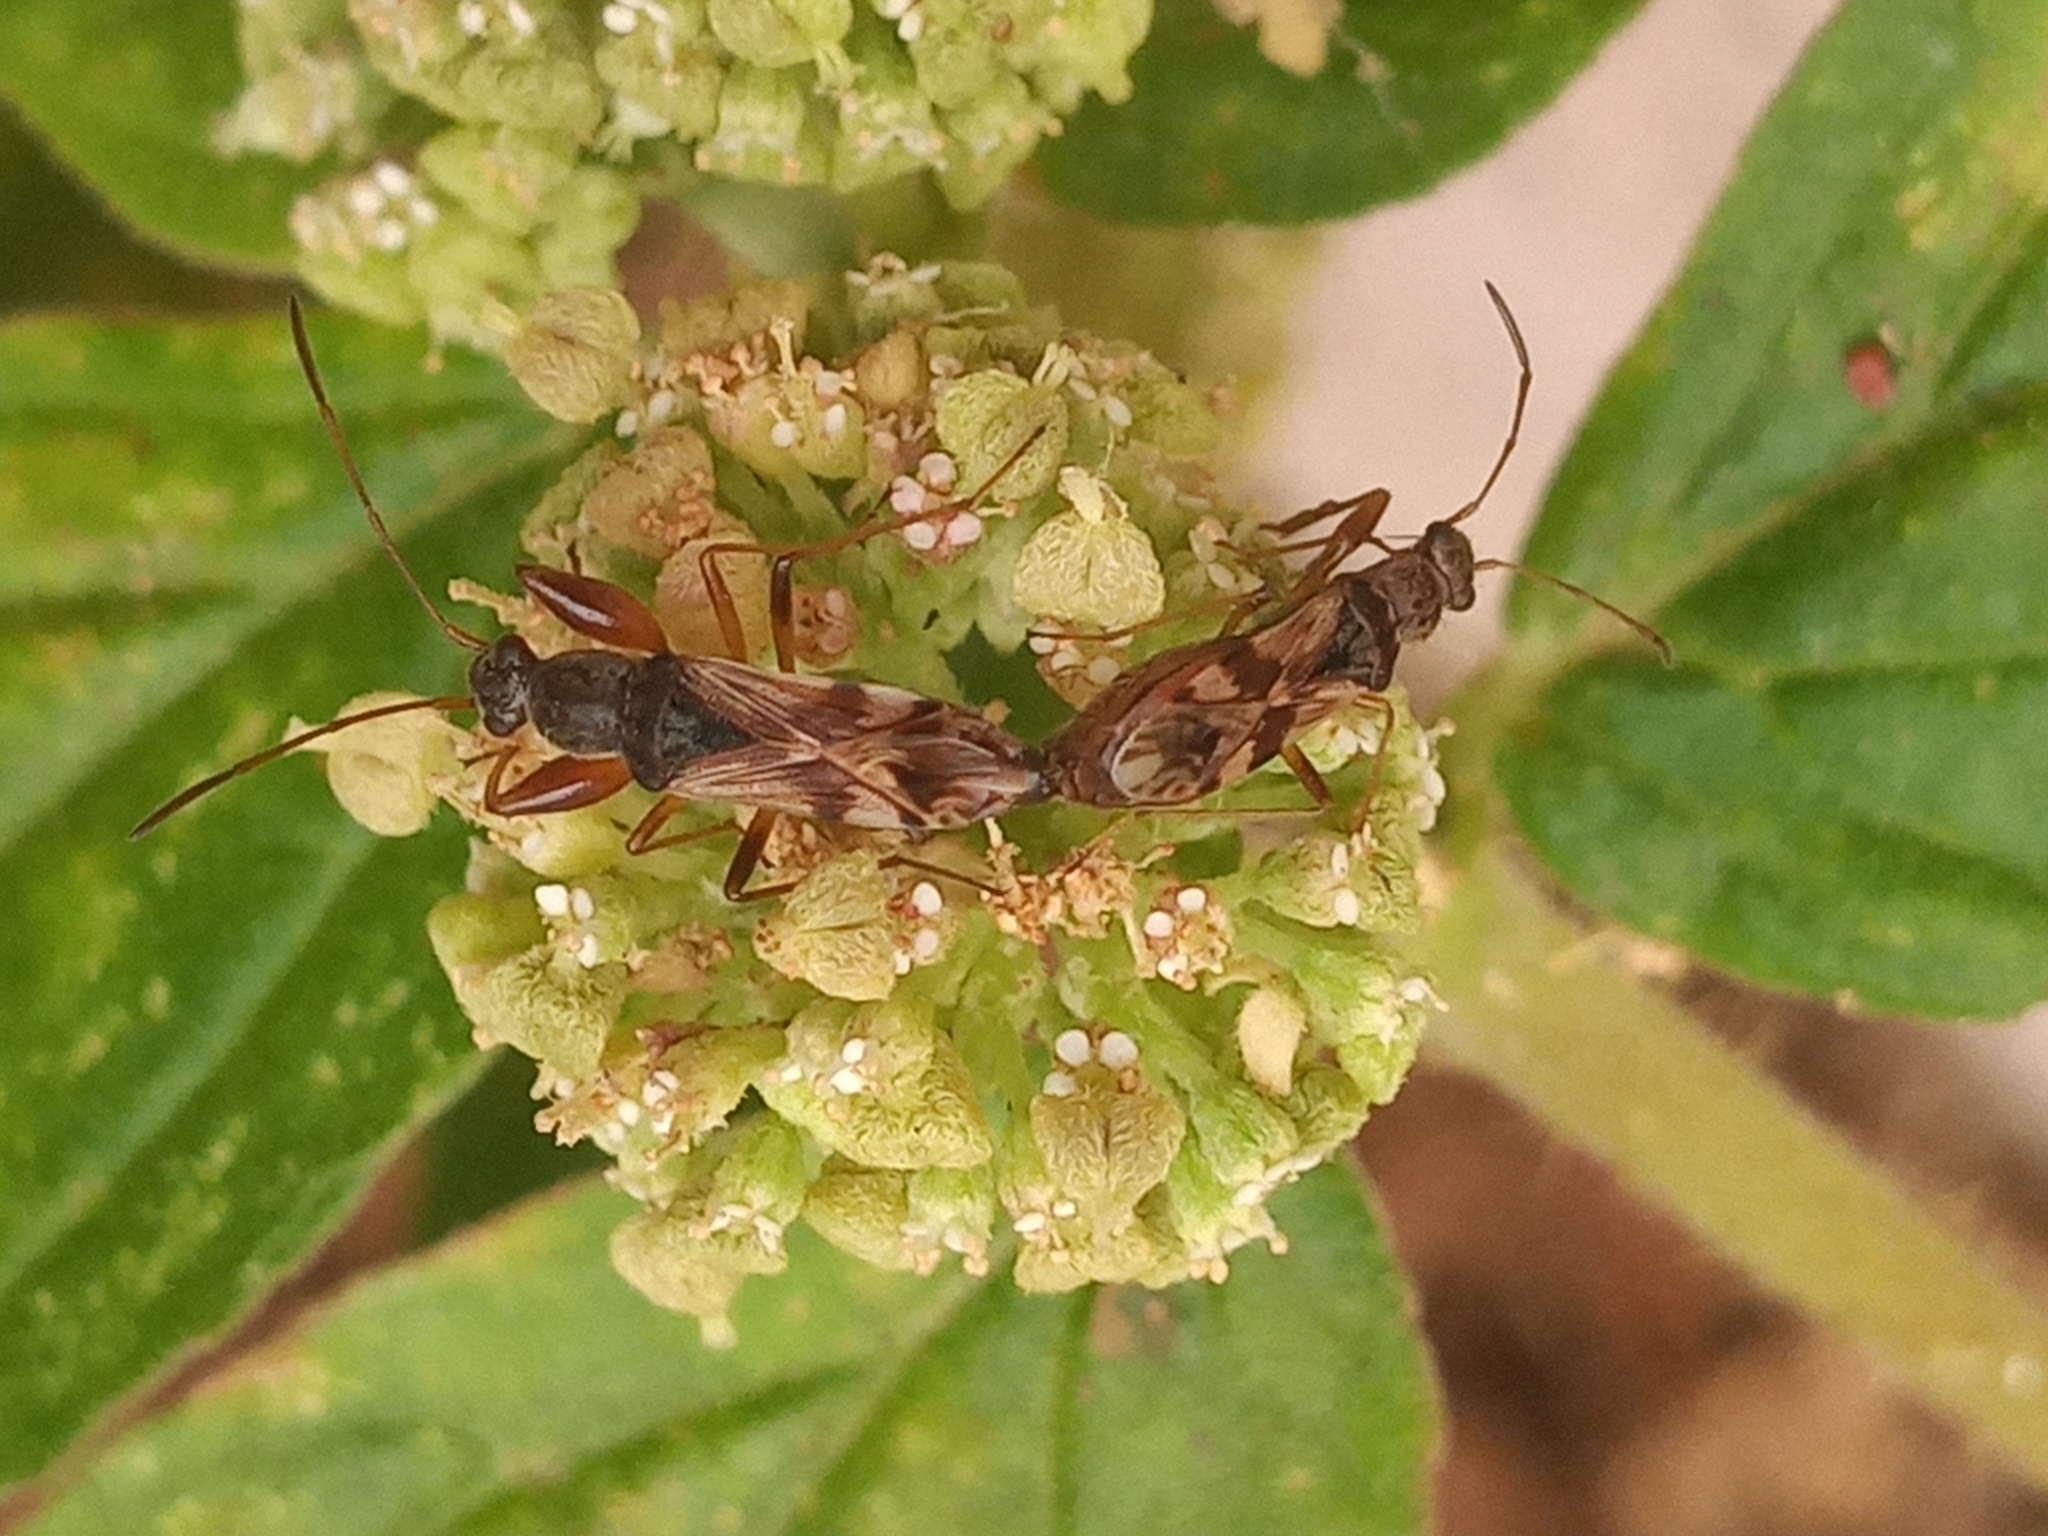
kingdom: Animalia
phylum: Arthropoda
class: Insecta
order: Hemiptera
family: Rhyparochromidae
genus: Neopamera
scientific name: Neopamera bilobata
